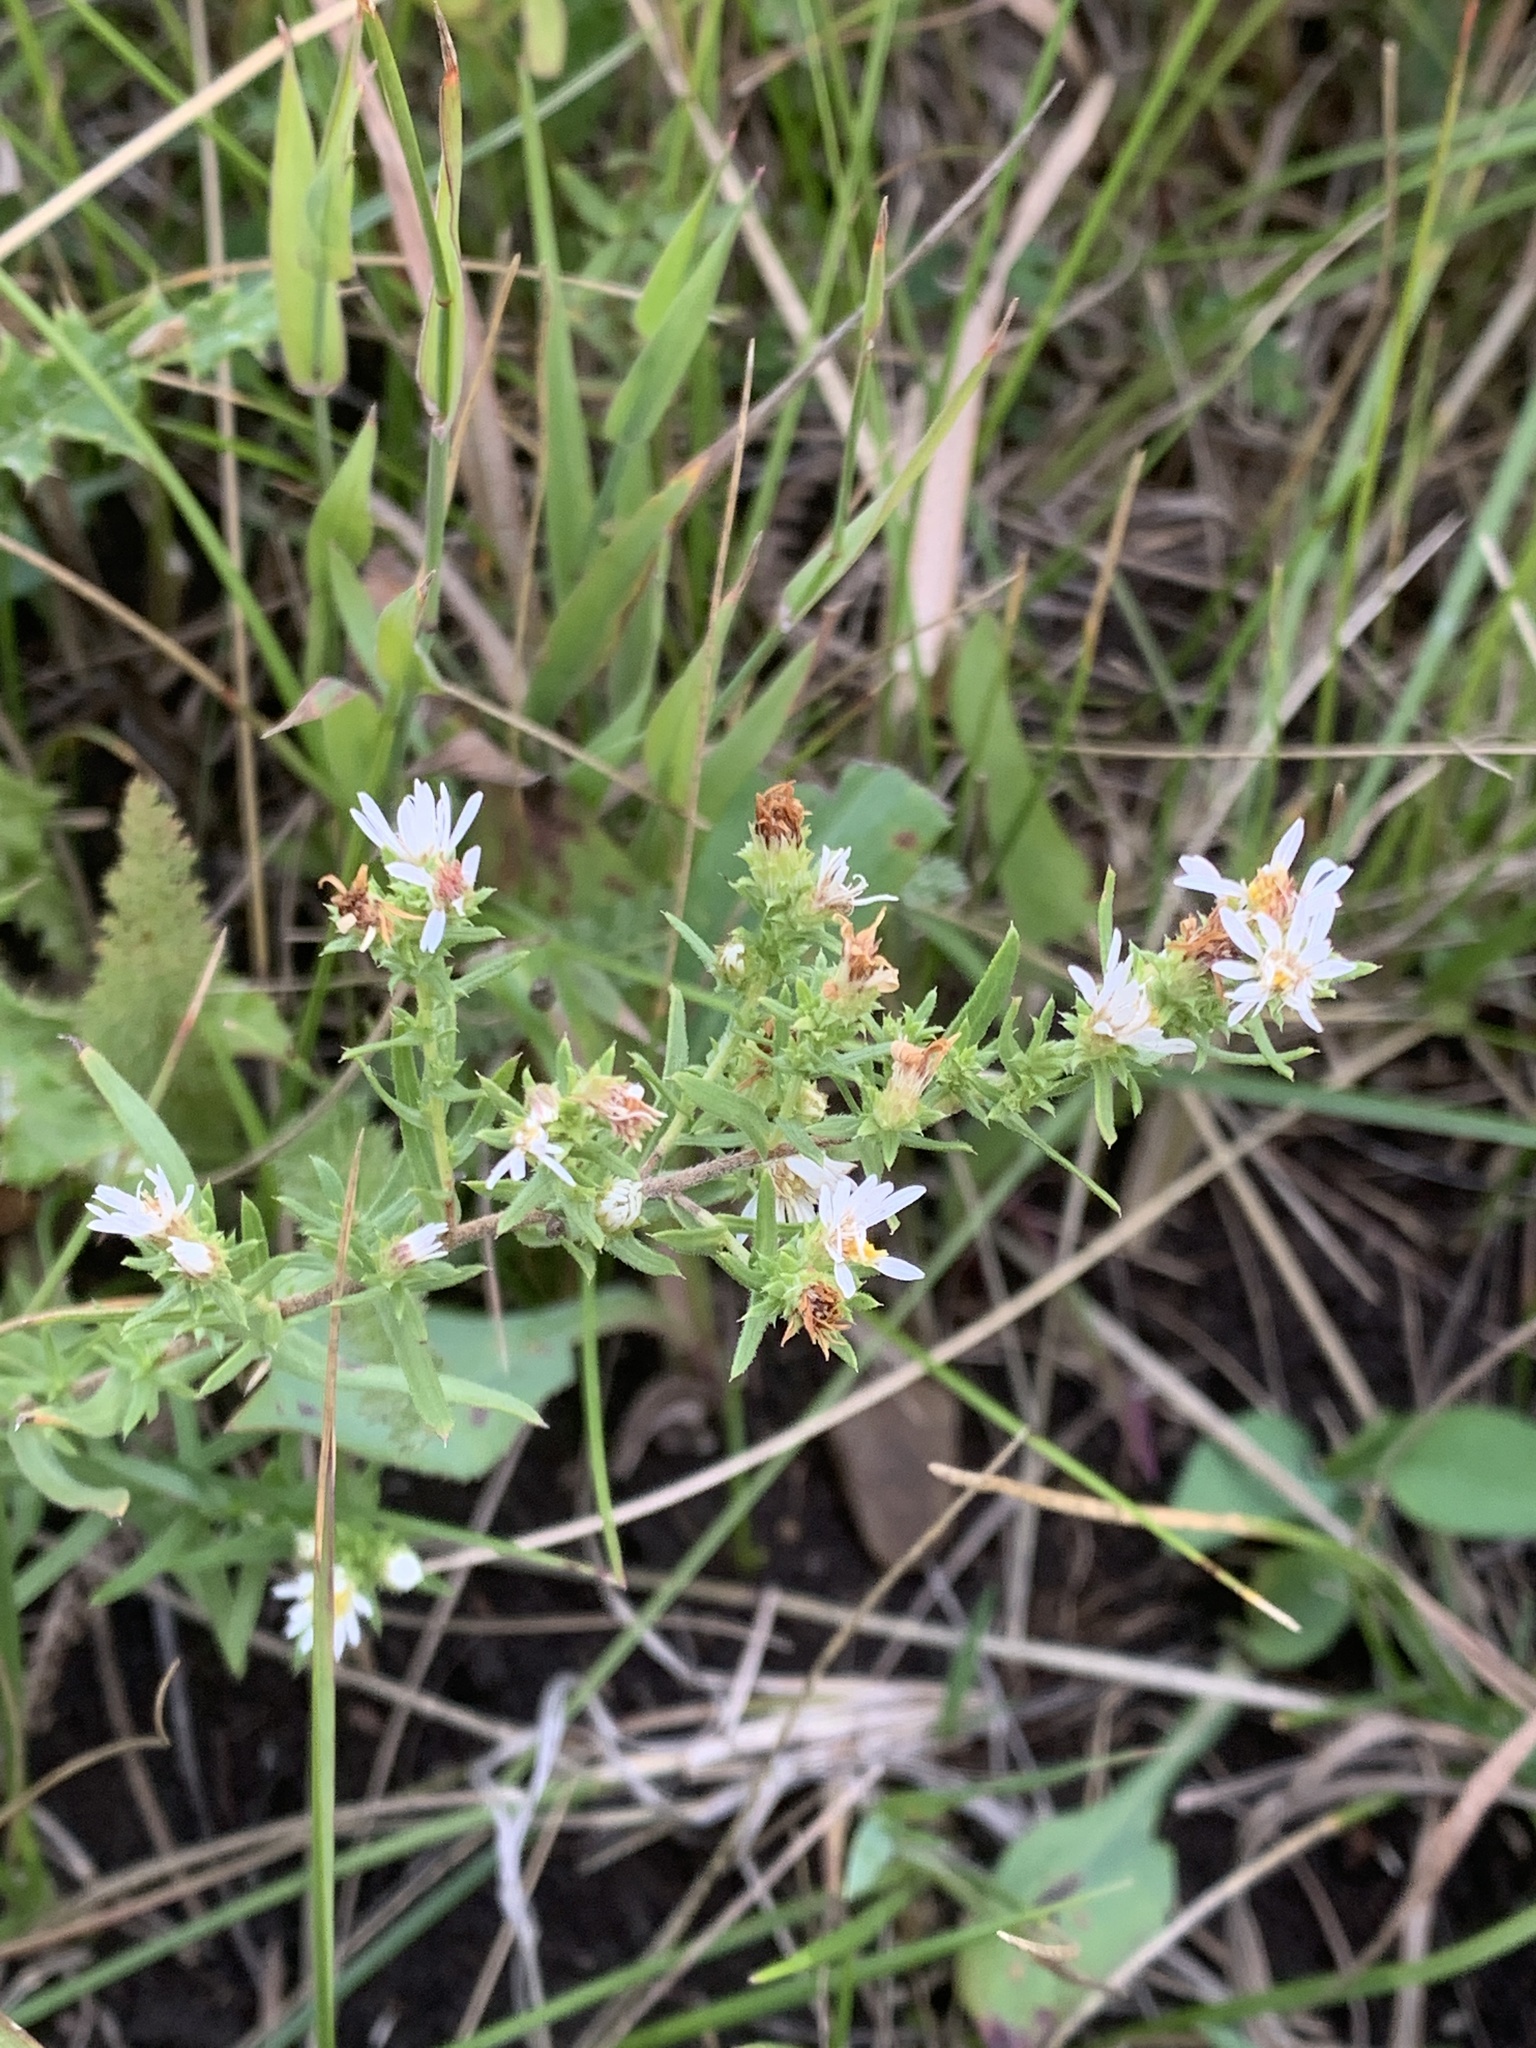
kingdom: Plantae
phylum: Tracheophyta
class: Magnoliopsida
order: Asterales
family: Asteraceae
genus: Symphyotrichum
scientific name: Symphyotrichum ericoides
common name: Heath aster
